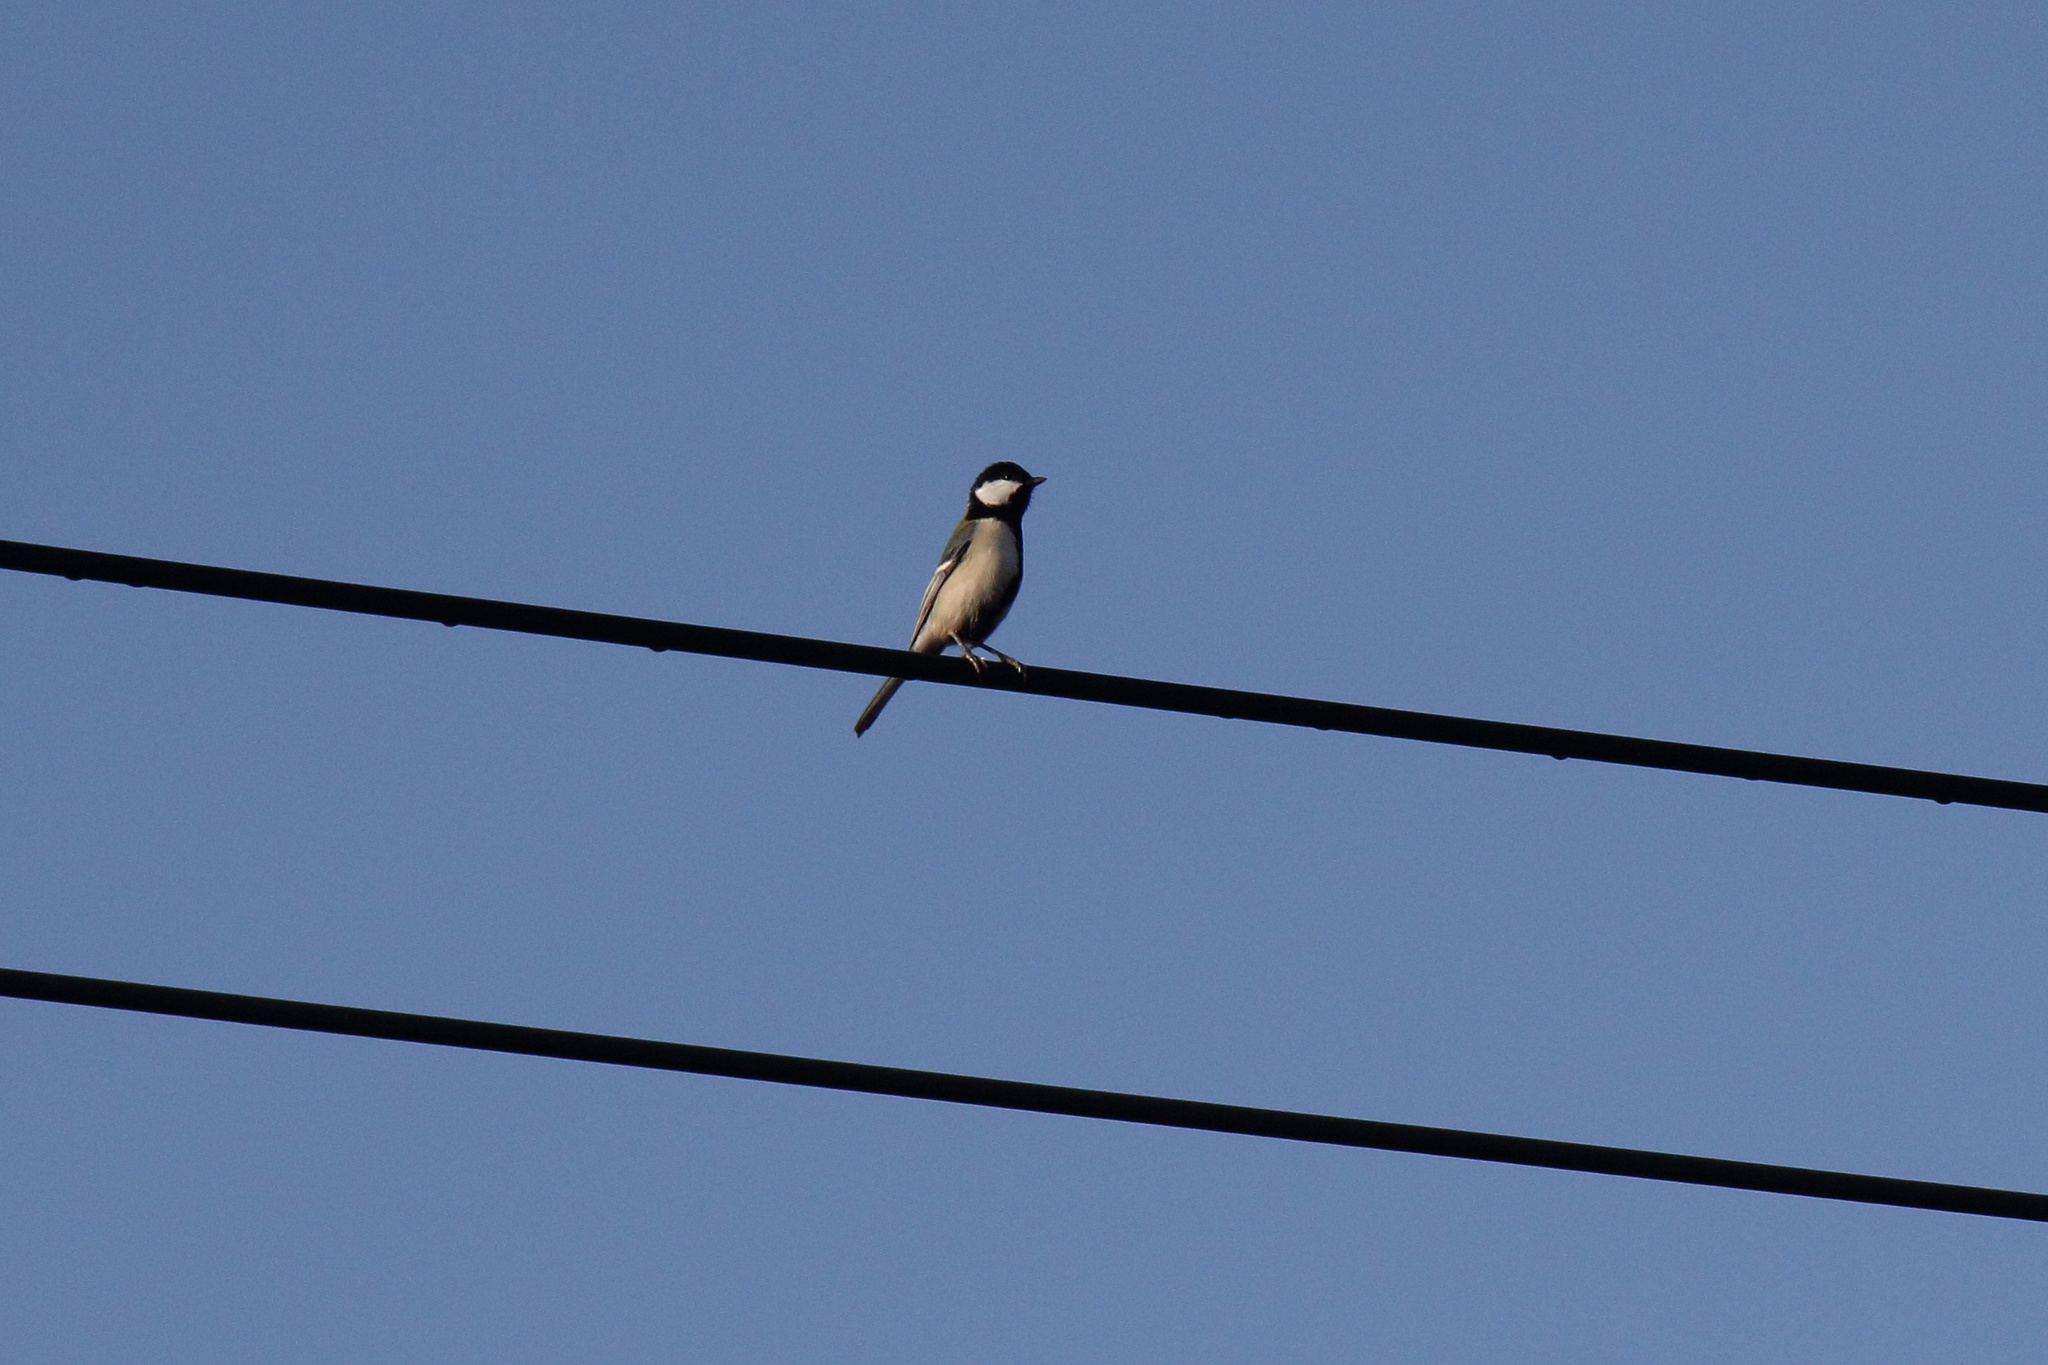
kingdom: Animalia
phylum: Chordata
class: Aves
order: Passeriformes
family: Paridae
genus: Parus
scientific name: Parus minor
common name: Japanese tit
